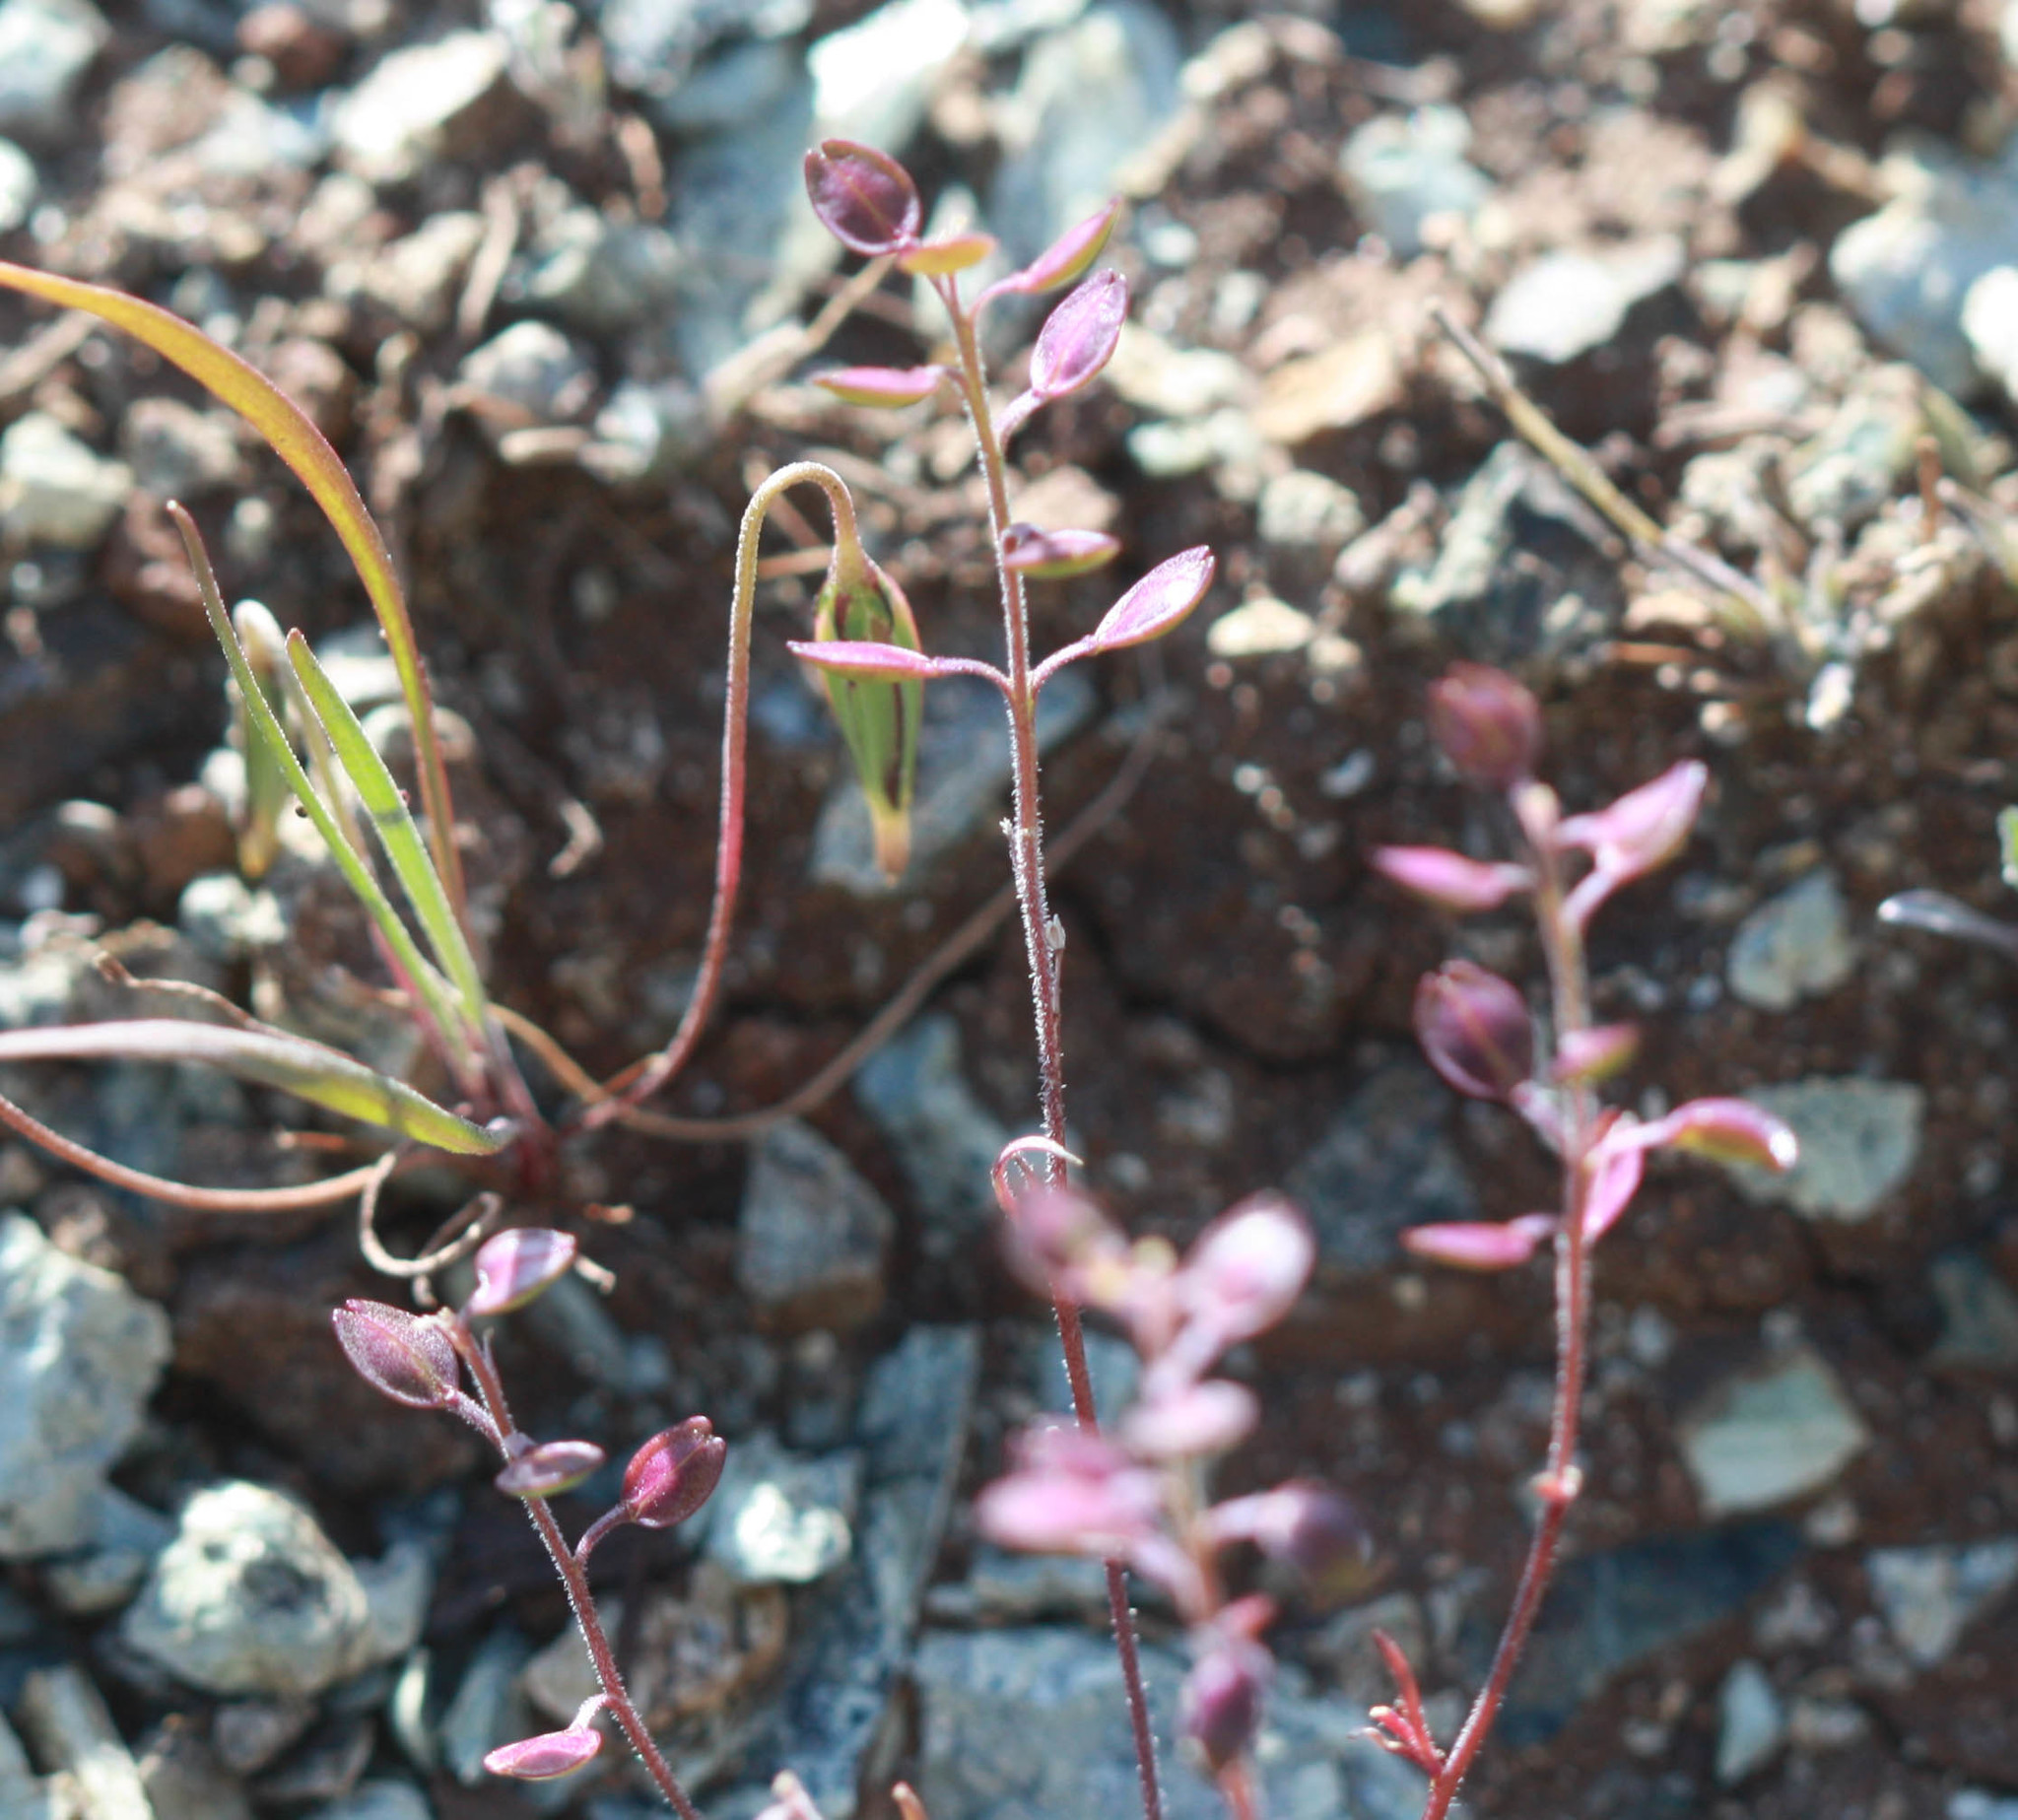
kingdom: Plantae
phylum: Tracheophyta
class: Magnoliopsida
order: Brassicales
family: Brassicaceae
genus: Lepidium
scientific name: Lepidium nitidum
